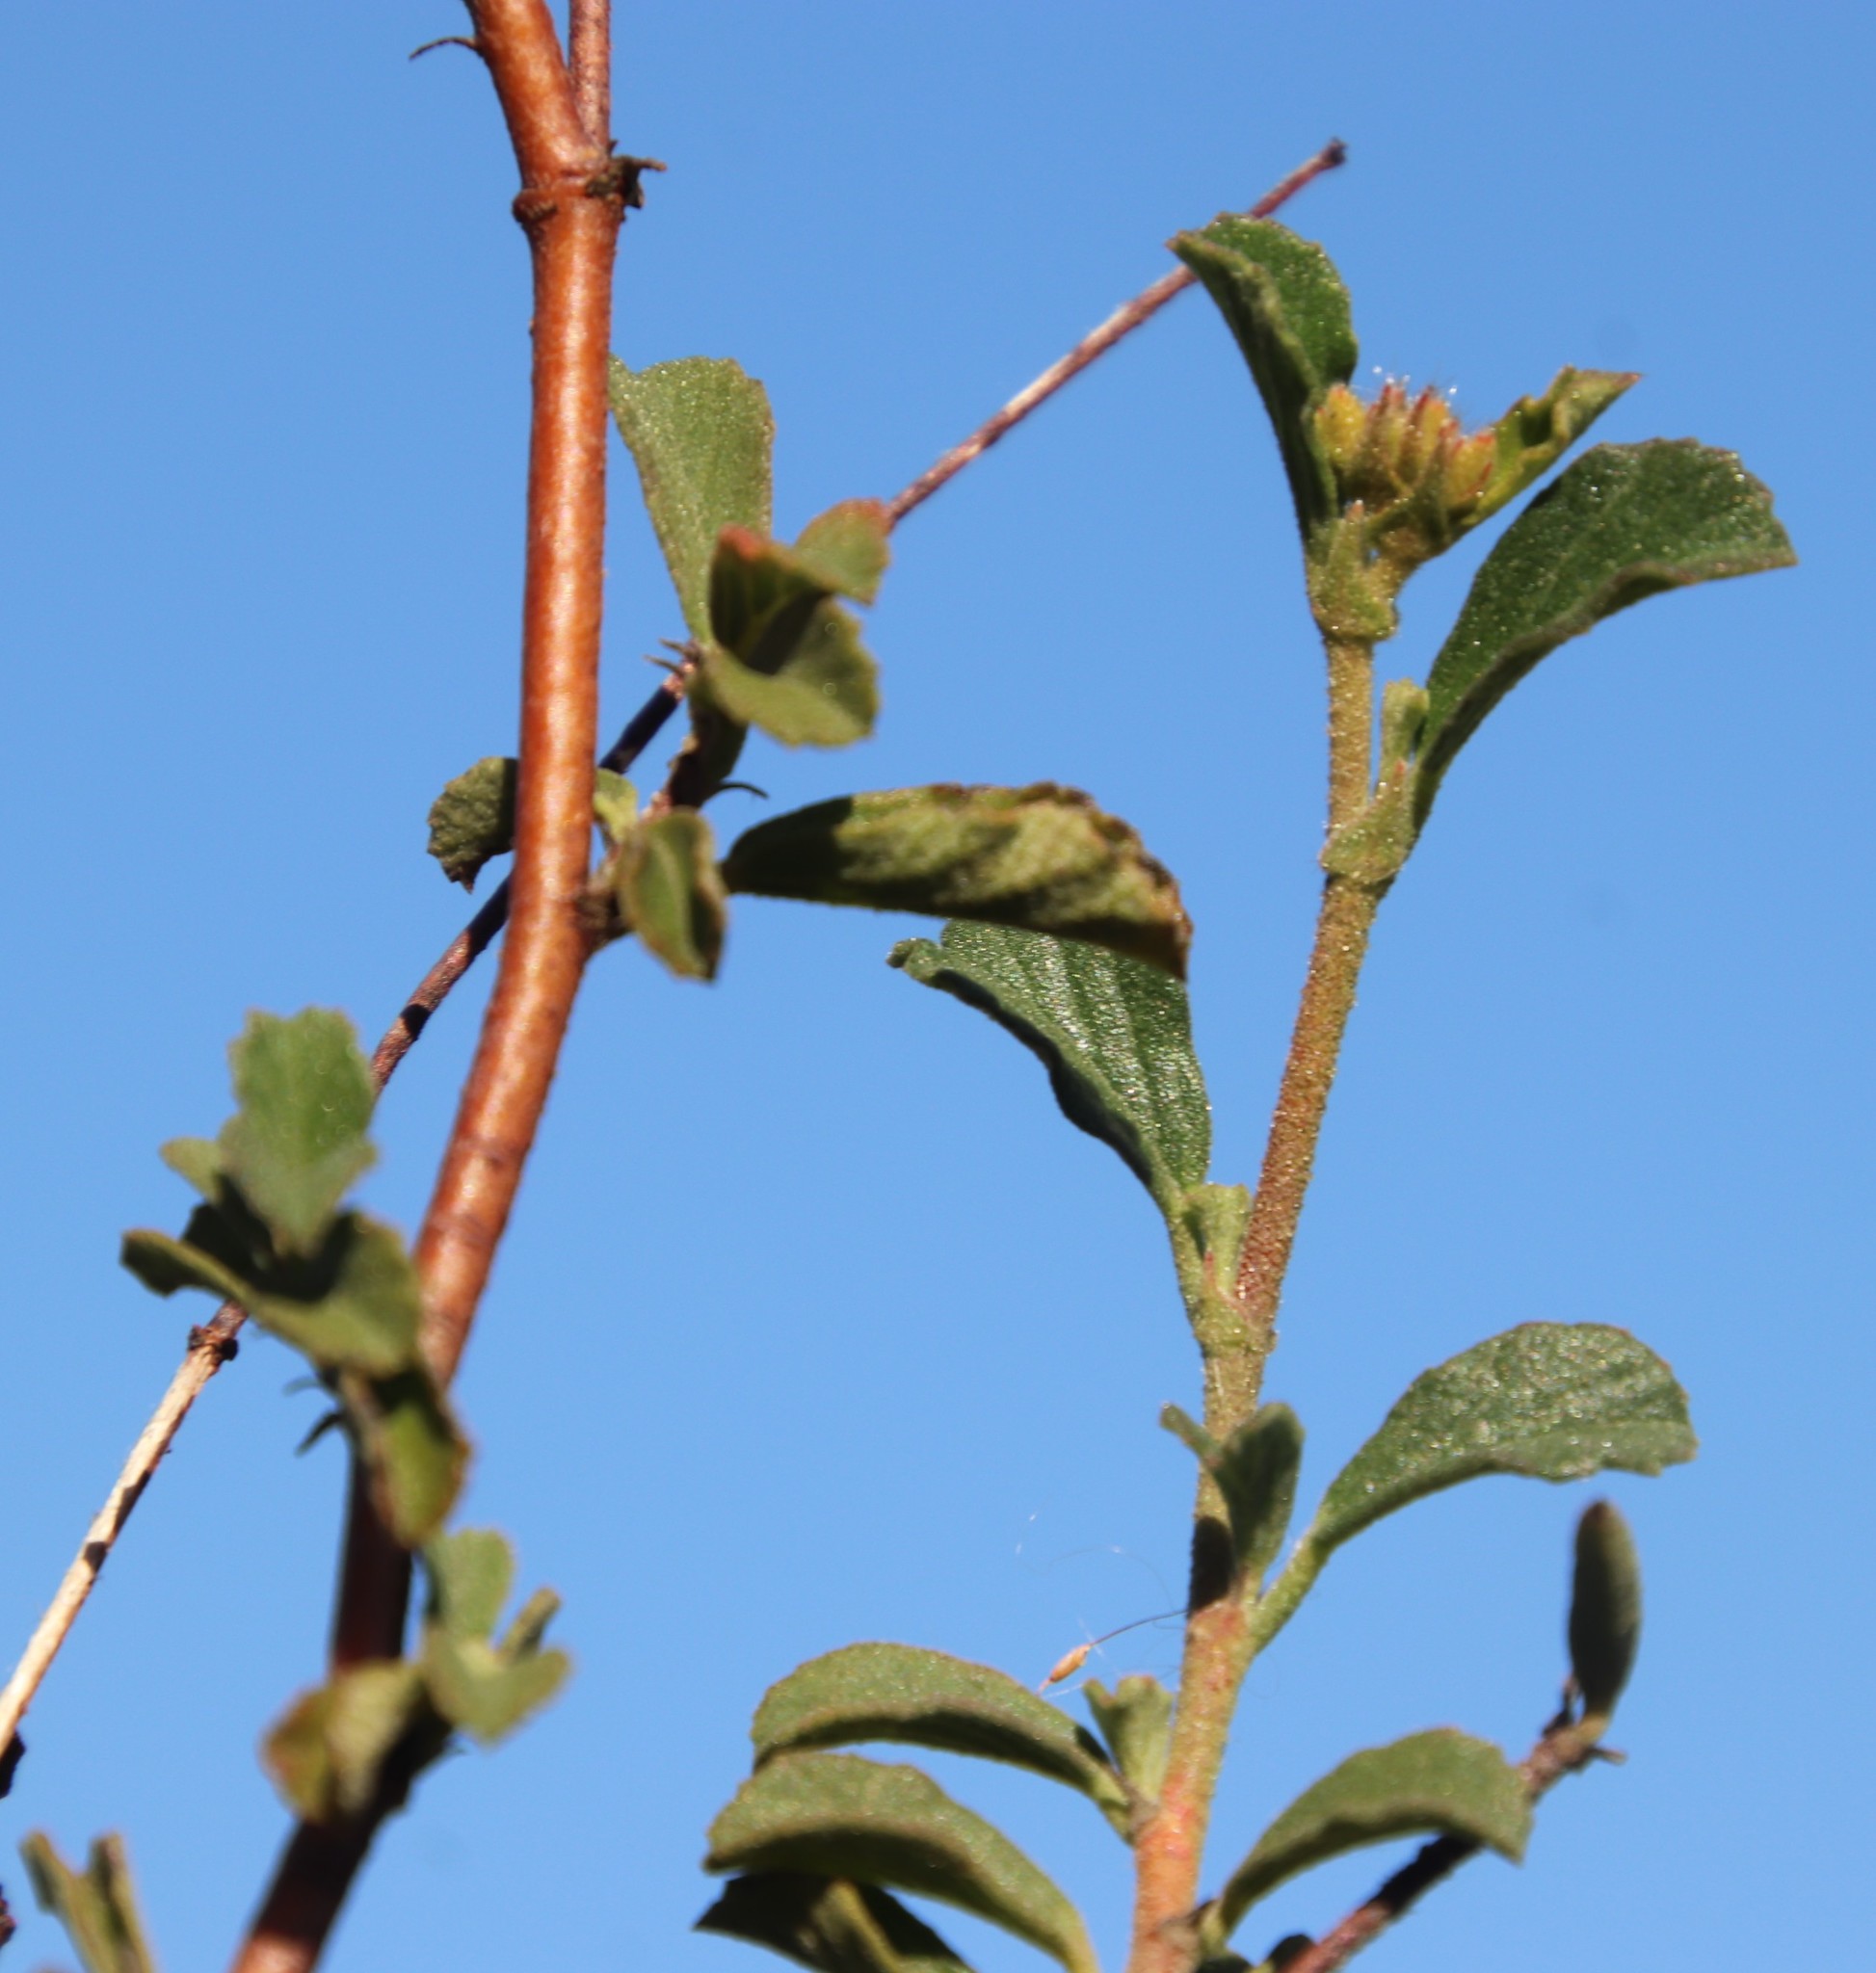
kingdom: Plantae
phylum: Tracheophyta
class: Magnoliopsida
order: Malvales
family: Malvaceae
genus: Hermannia
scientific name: Hermannia hyssopifolia
